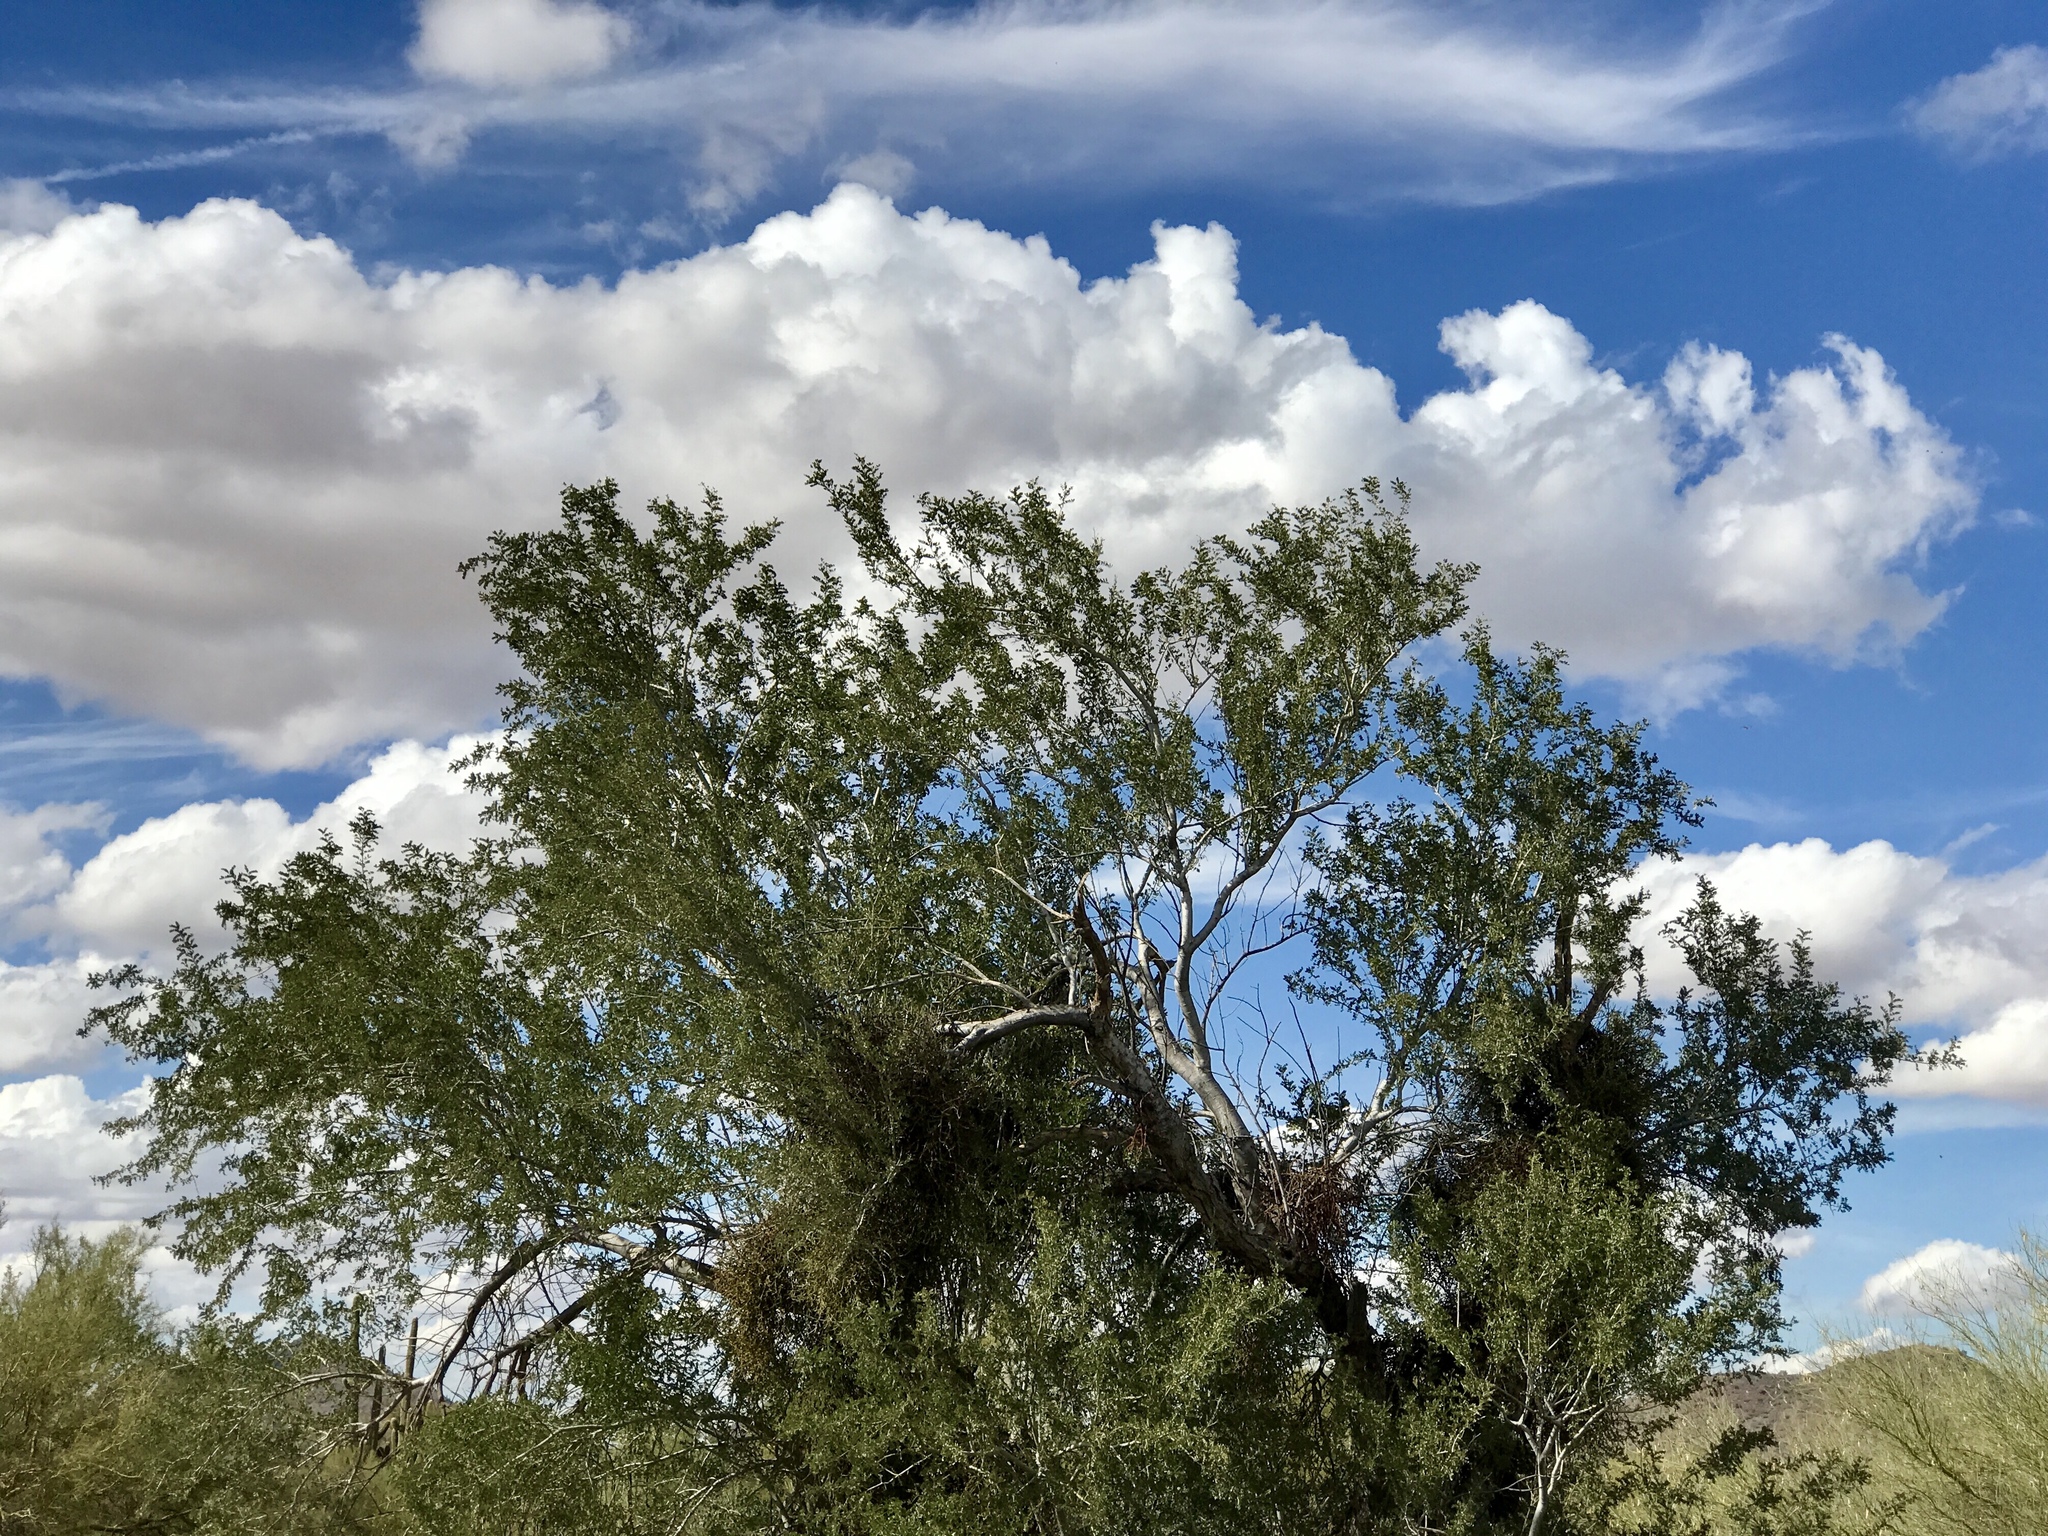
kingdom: Plantae
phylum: Tracheophyta
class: Magnoliopsida
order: Fabales
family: Fabaceae
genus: Olneya
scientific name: Olneya tesota
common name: Desert ironwood
